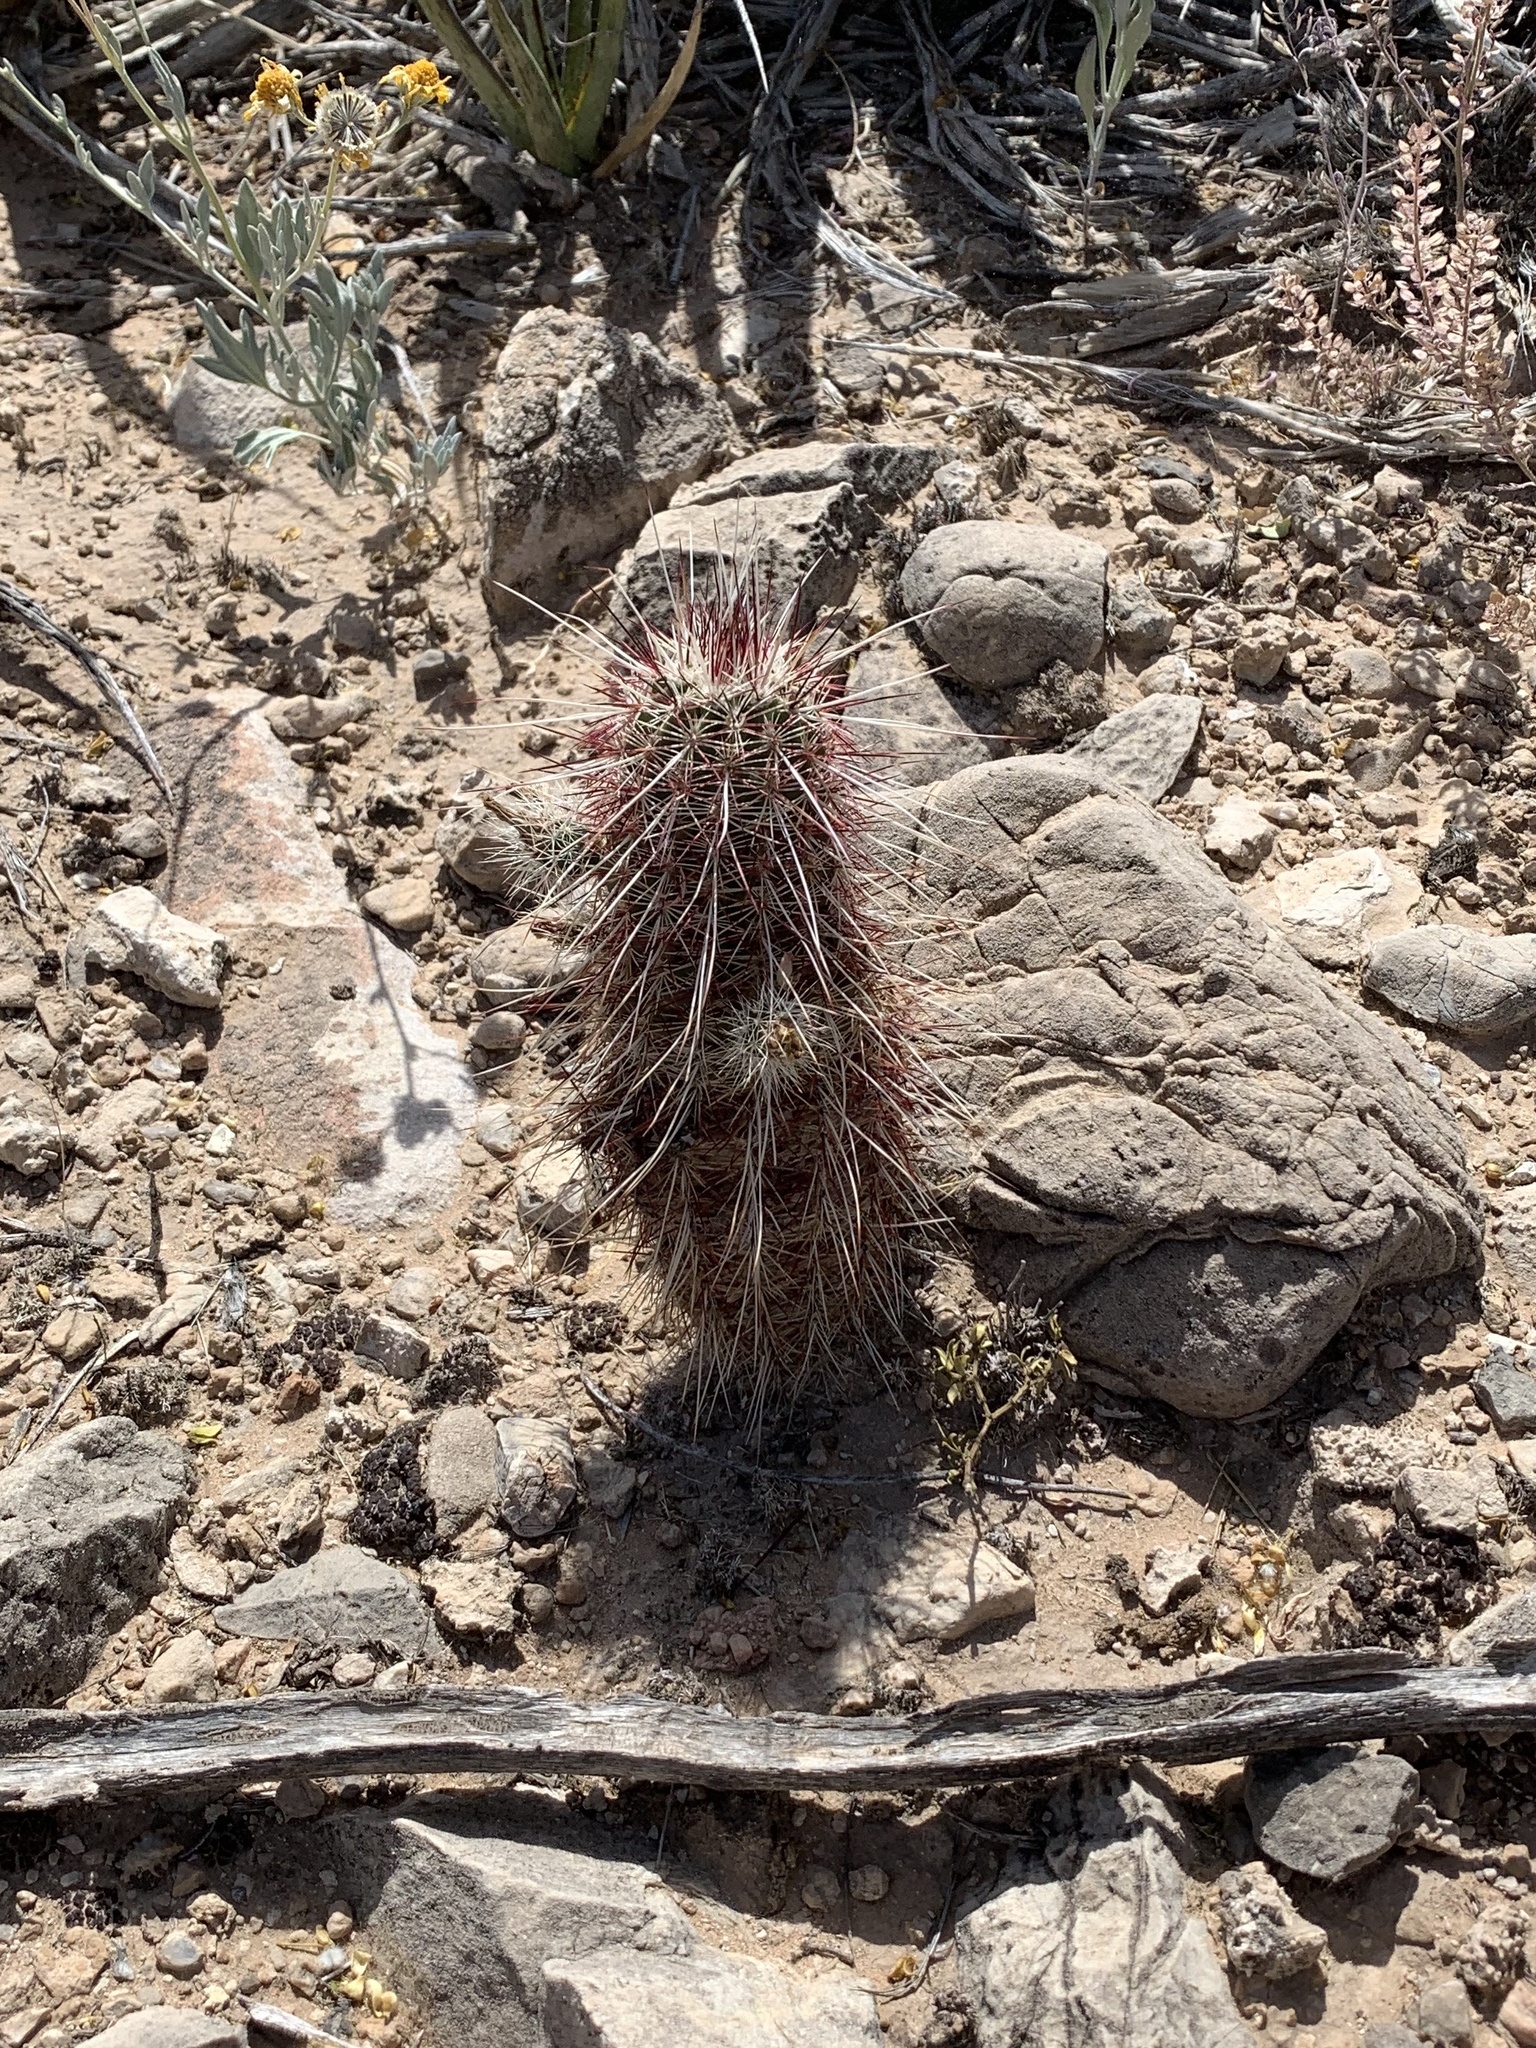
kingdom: Plantae
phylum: Tracheophyta
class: Magnoliopsida
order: Caryophyllales
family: Cactaceae
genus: Echinocereus
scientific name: Echinocereus viridiflorus
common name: Nylon hedgehog cactus
